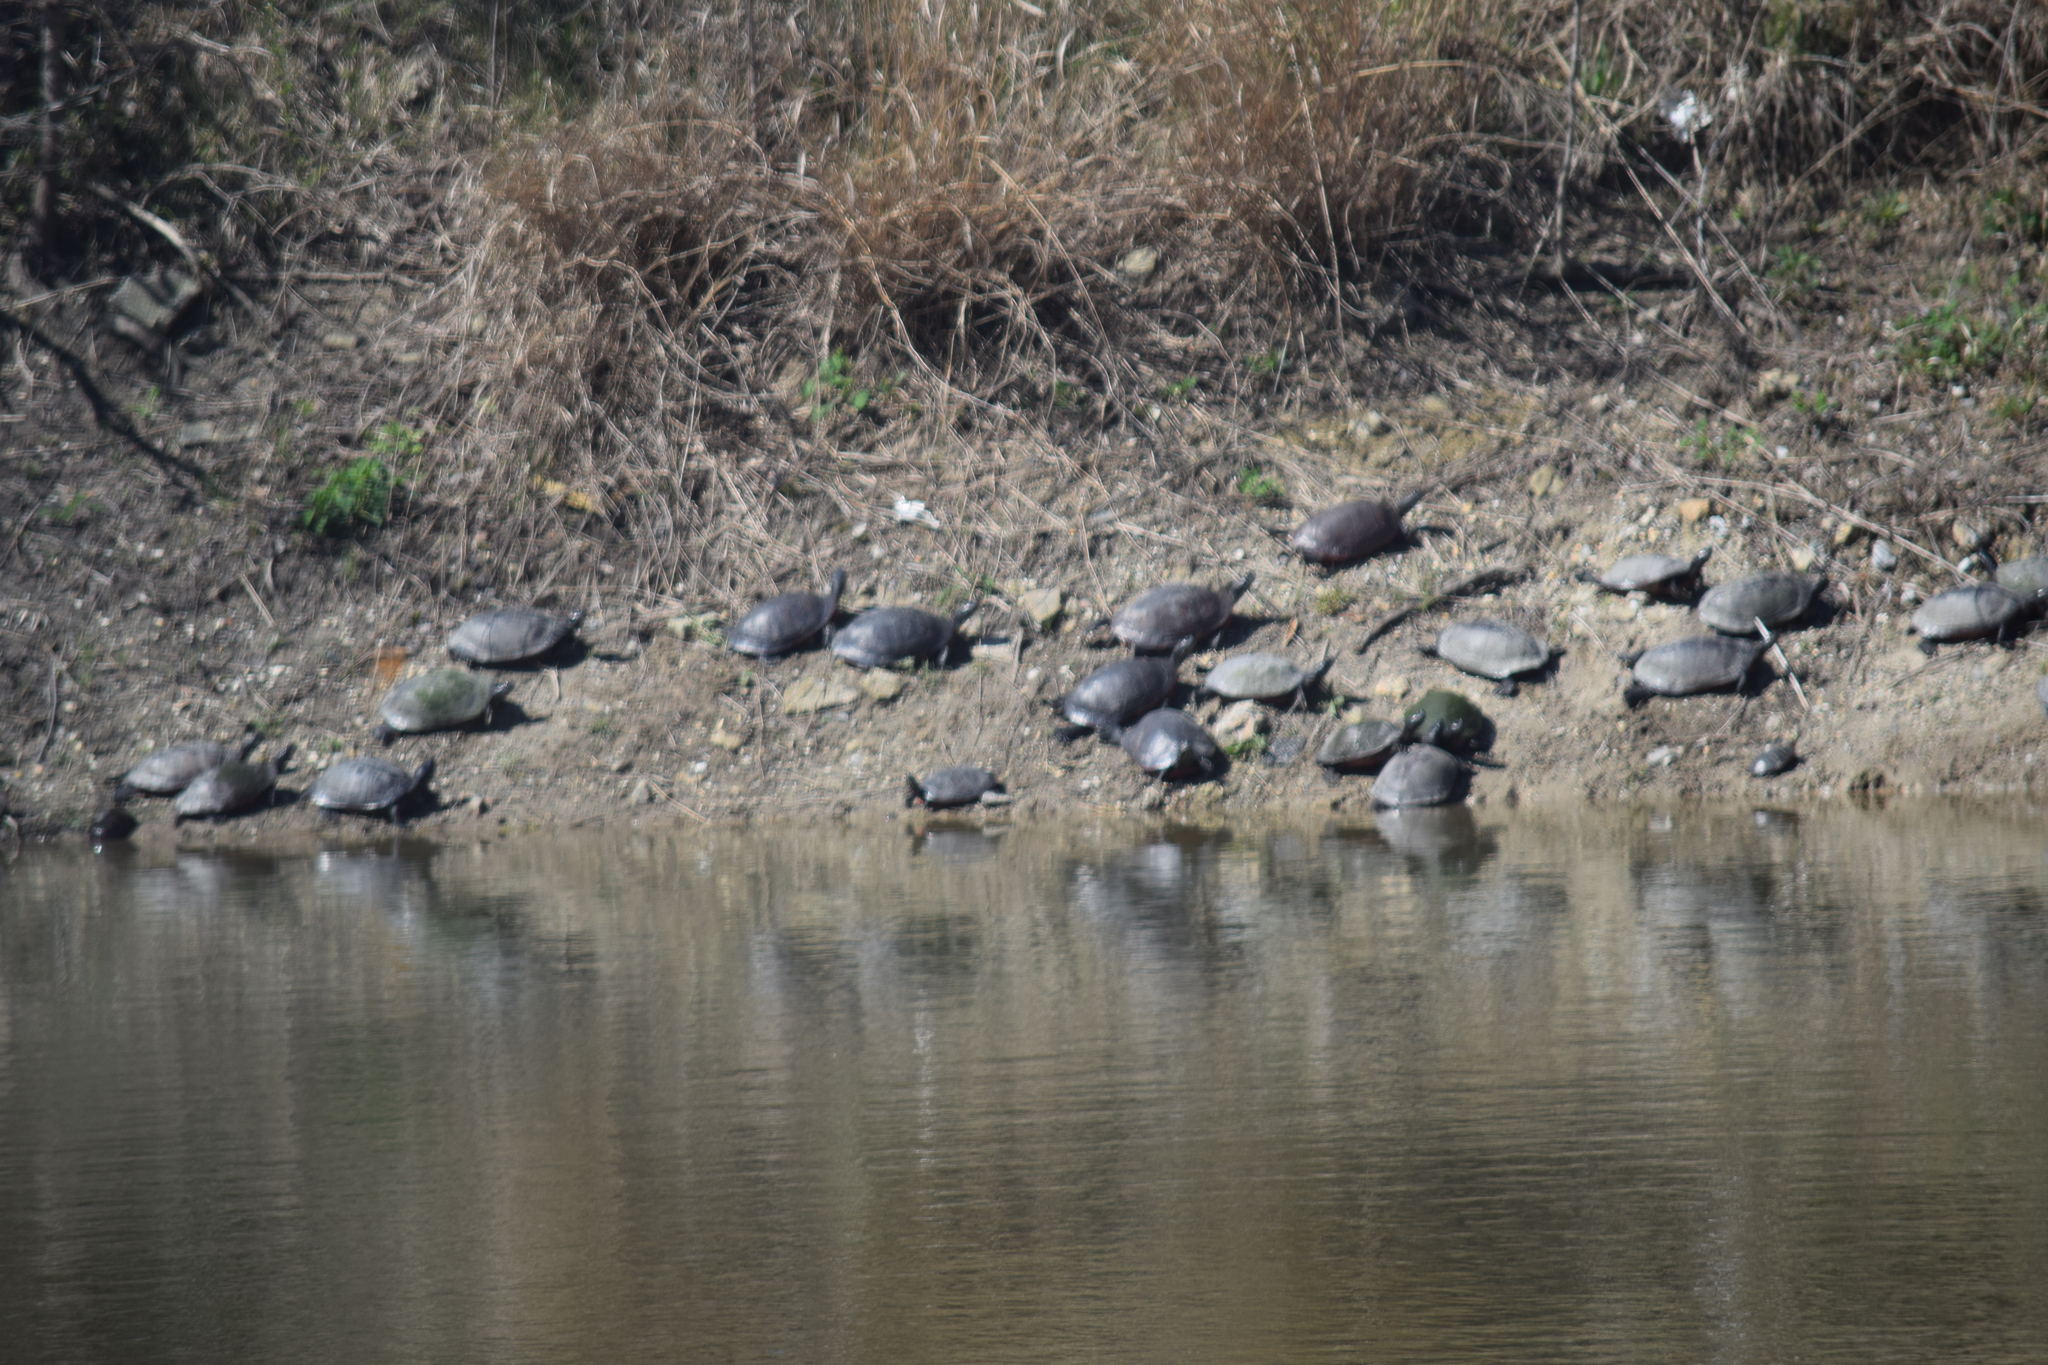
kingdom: Animalia
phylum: Chordata
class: Testudines
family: Emydidae
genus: Pseudemys
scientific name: Pseudemys rubriventris
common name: American red-bellied turtle
